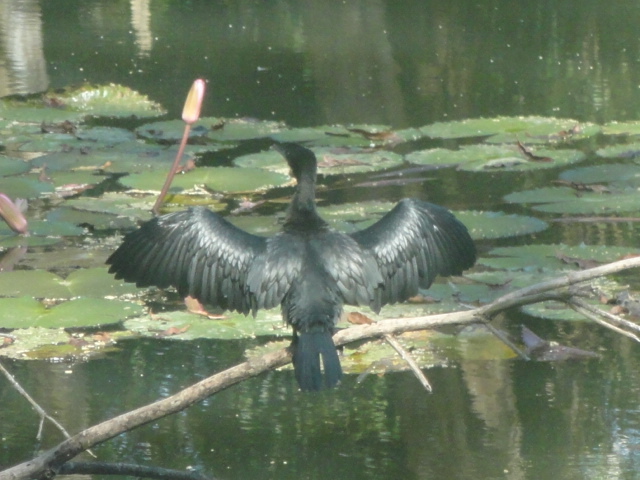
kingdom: Animalia
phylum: Chordata
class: Aves
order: Suliformes
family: Phalacrocoracidae
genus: Microcarbo
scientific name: Microcarbo niger
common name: Little cormorant
